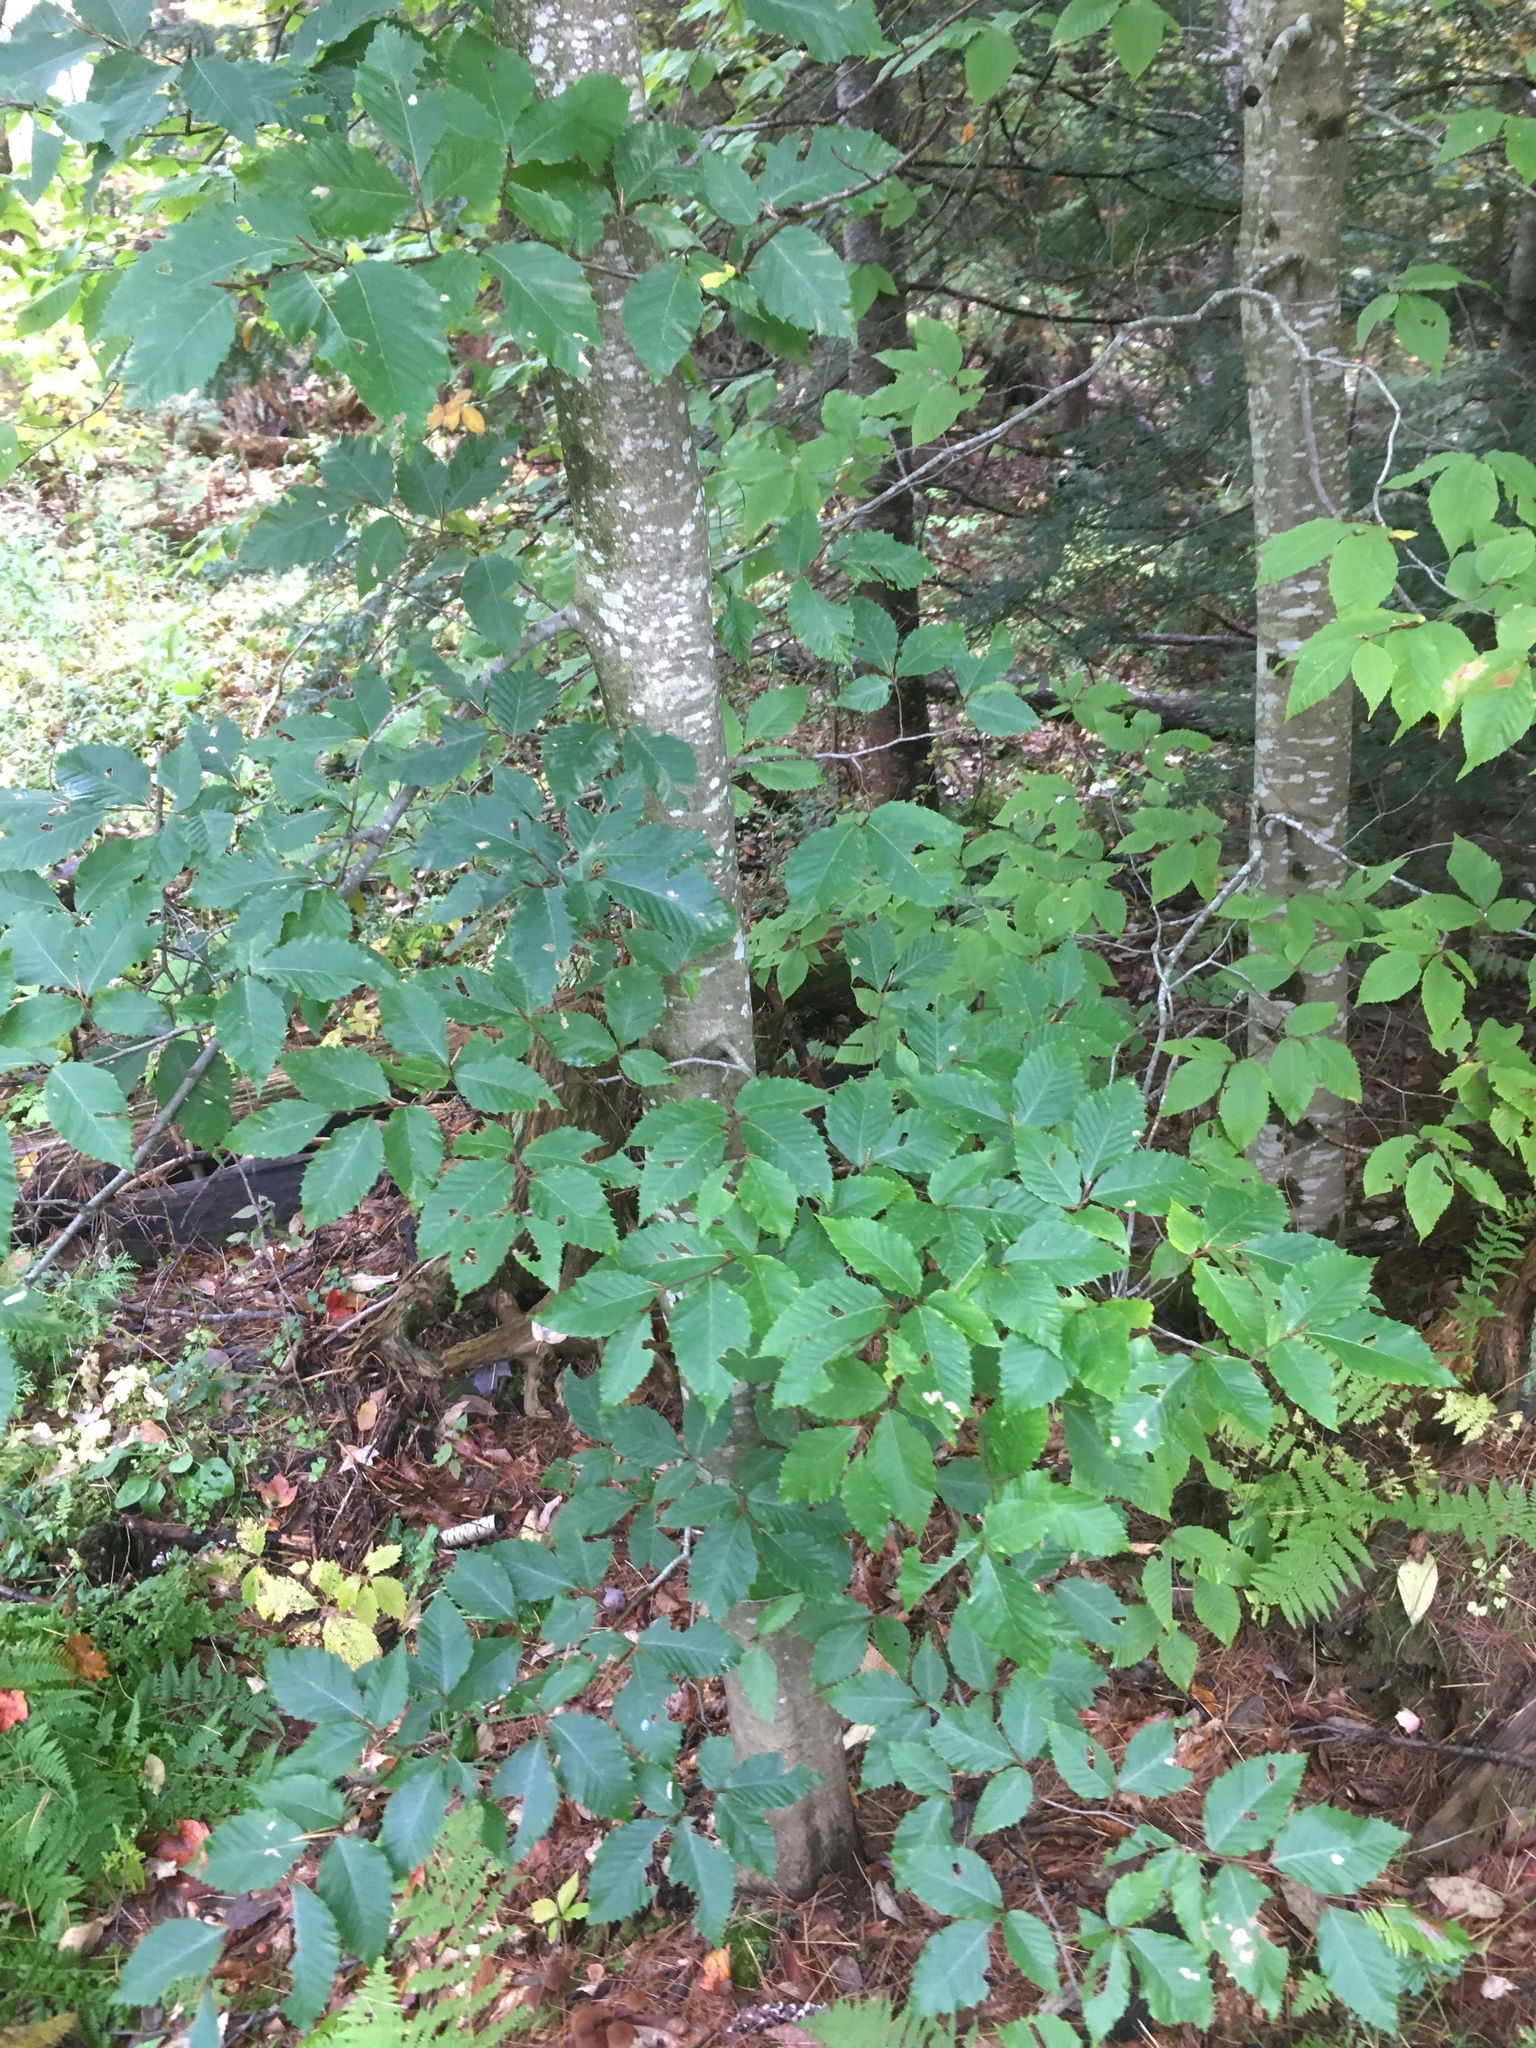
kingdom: Plantae
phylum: Tracheophyta
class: Magnoliopsida
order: Fagales
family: Fagaceae
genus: Fagus
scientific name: Fagus grandifolia
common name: American beech
